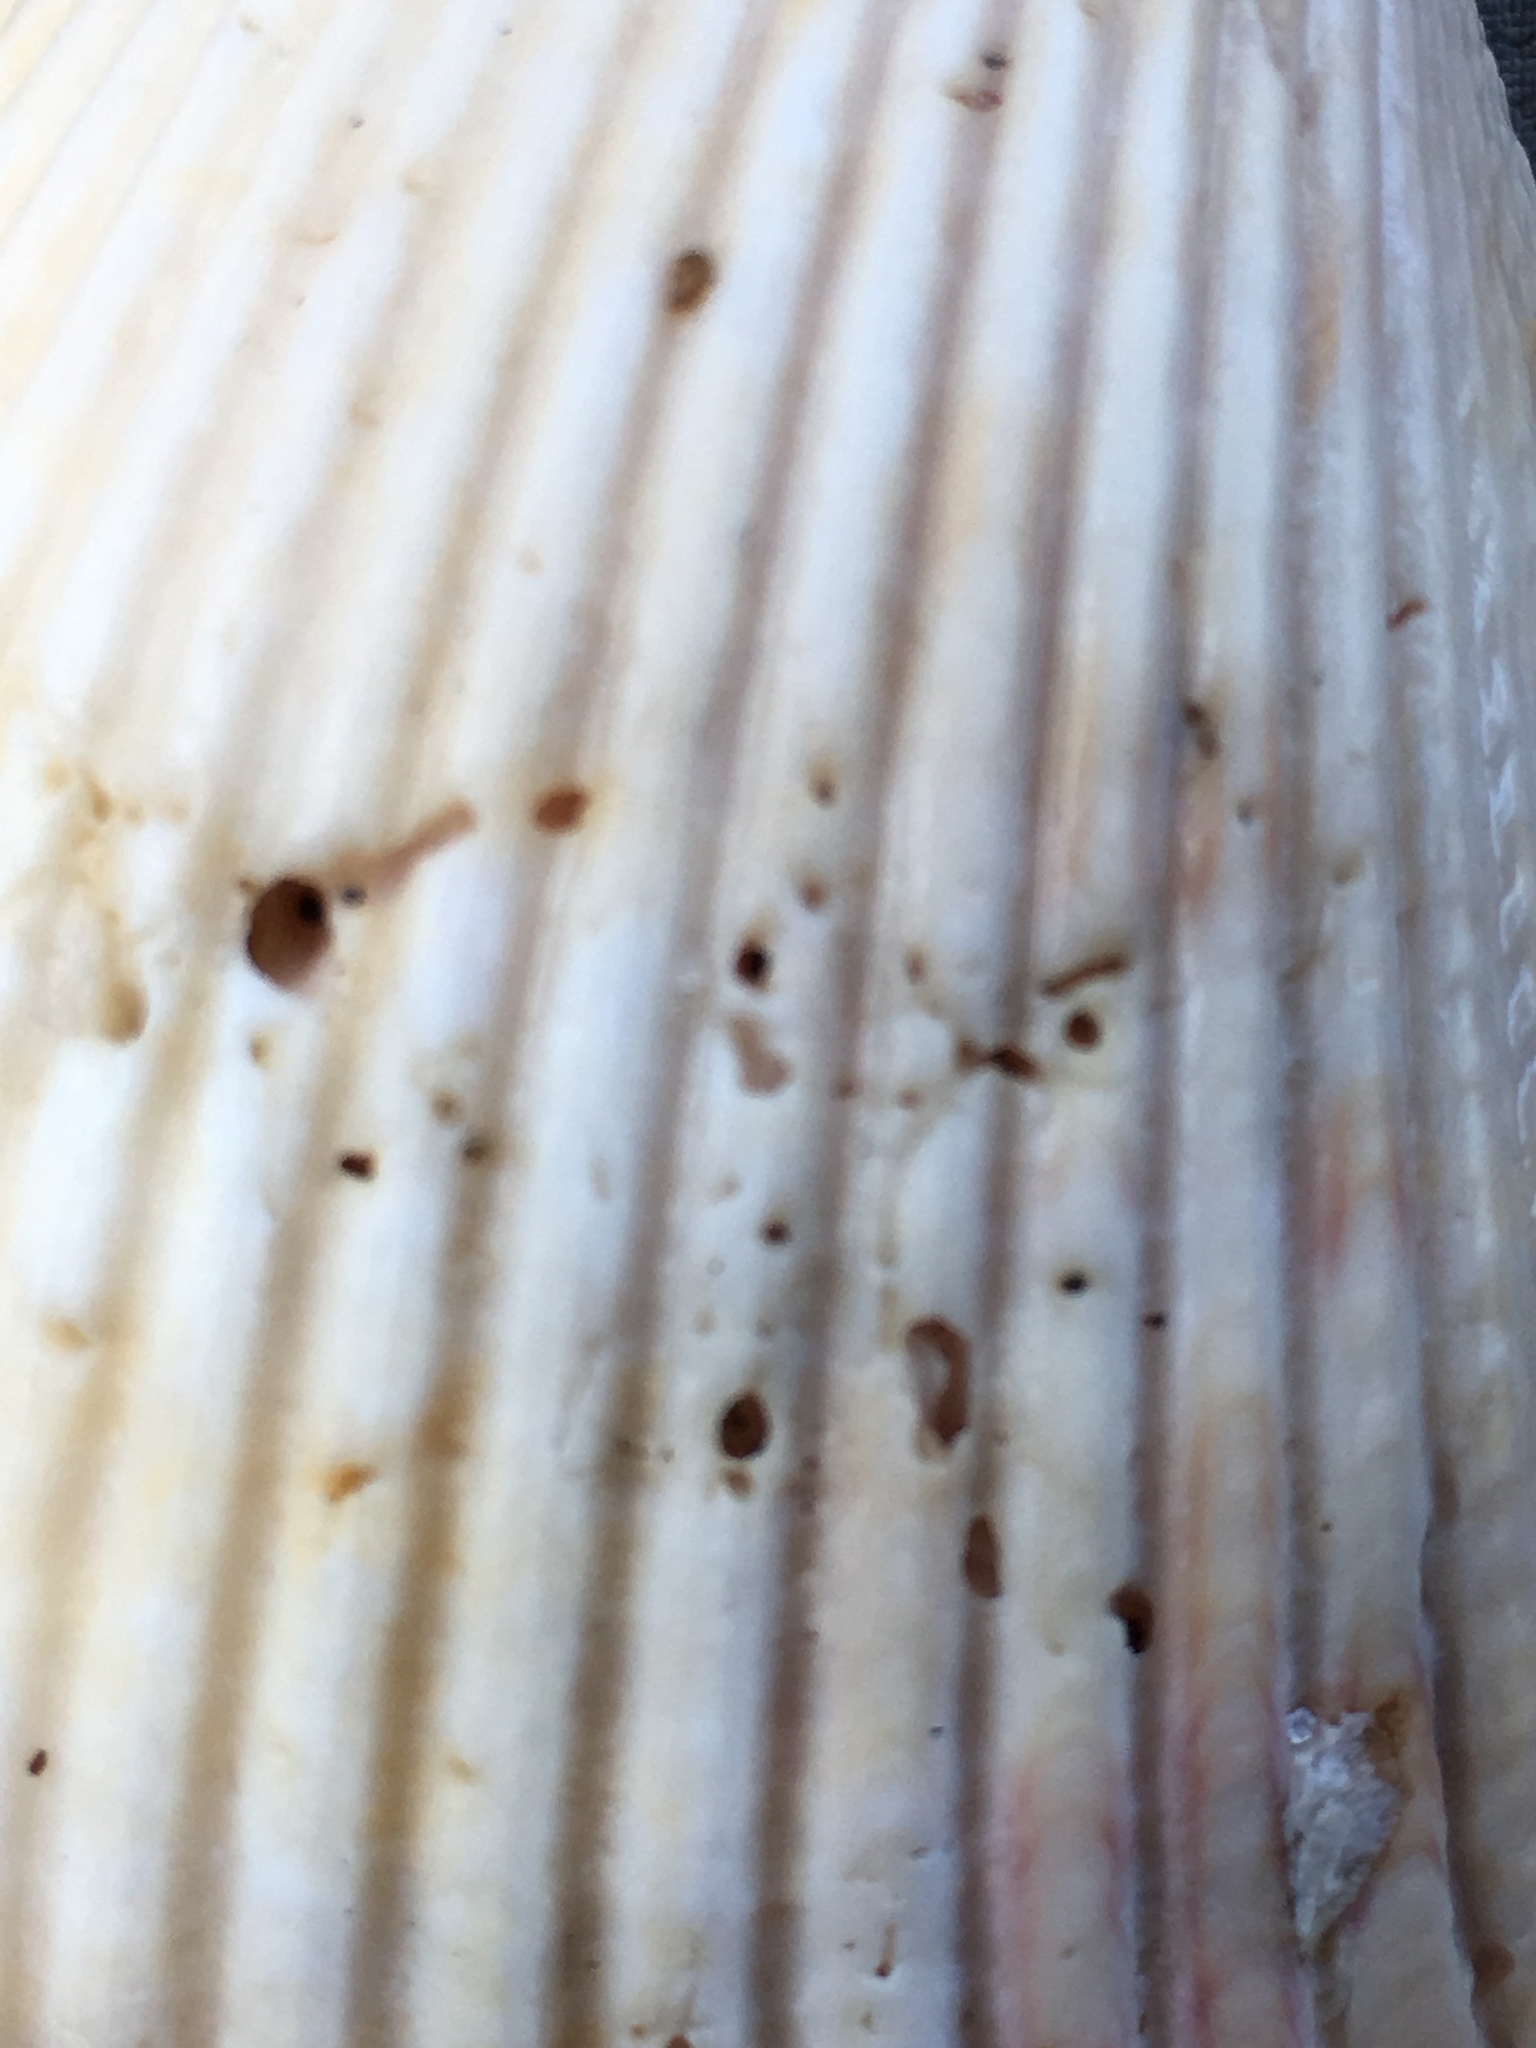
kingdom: Animalia
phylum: Mollusca
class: Bivalvia
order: Cardiida
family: Cardiidae
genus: Trachycardium
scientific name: Trachycardium isocardia
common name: Even pricklycockle
